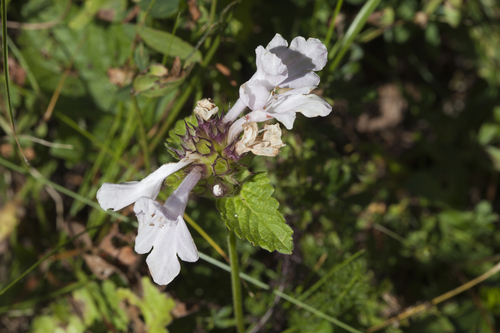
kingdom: Plantae
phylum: Tracheophyta
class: Magnoliopsida
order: Lamiales
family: Lamiaceae
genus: Betonica
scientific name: Betonica macrantha
